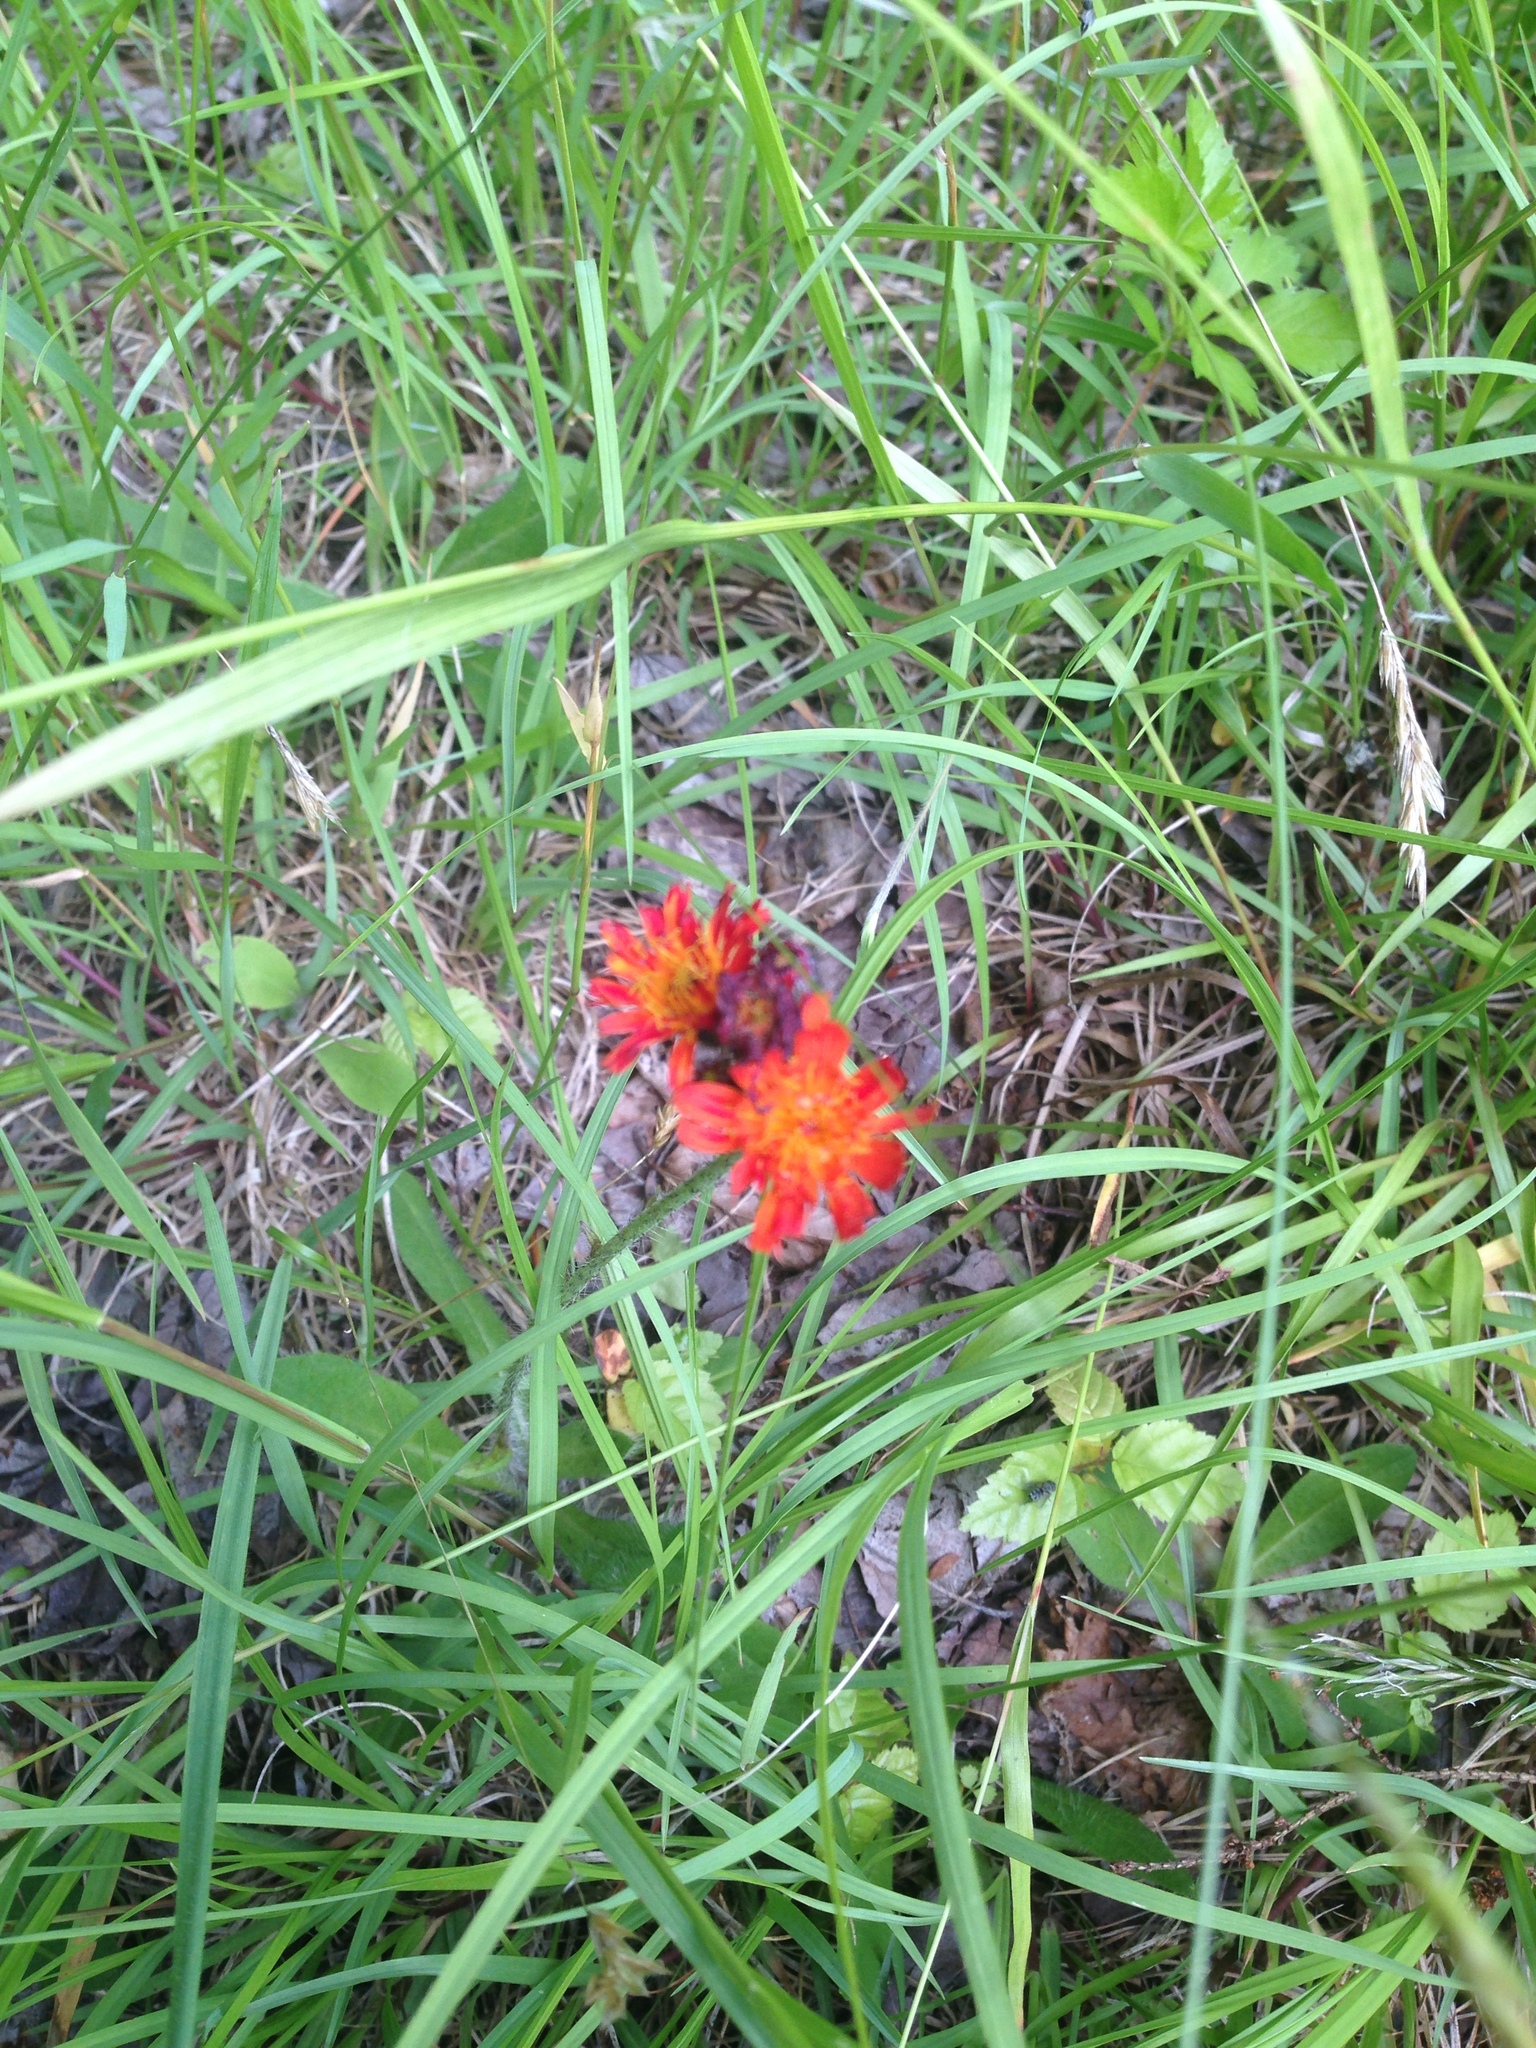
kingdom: Plantae
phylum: Tracheophyta
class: Magnoliopsida
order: Asterales
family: Asteraceae
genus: Pilosella
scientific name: Pilosella aurantiaca
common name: Fox-and-cubs
